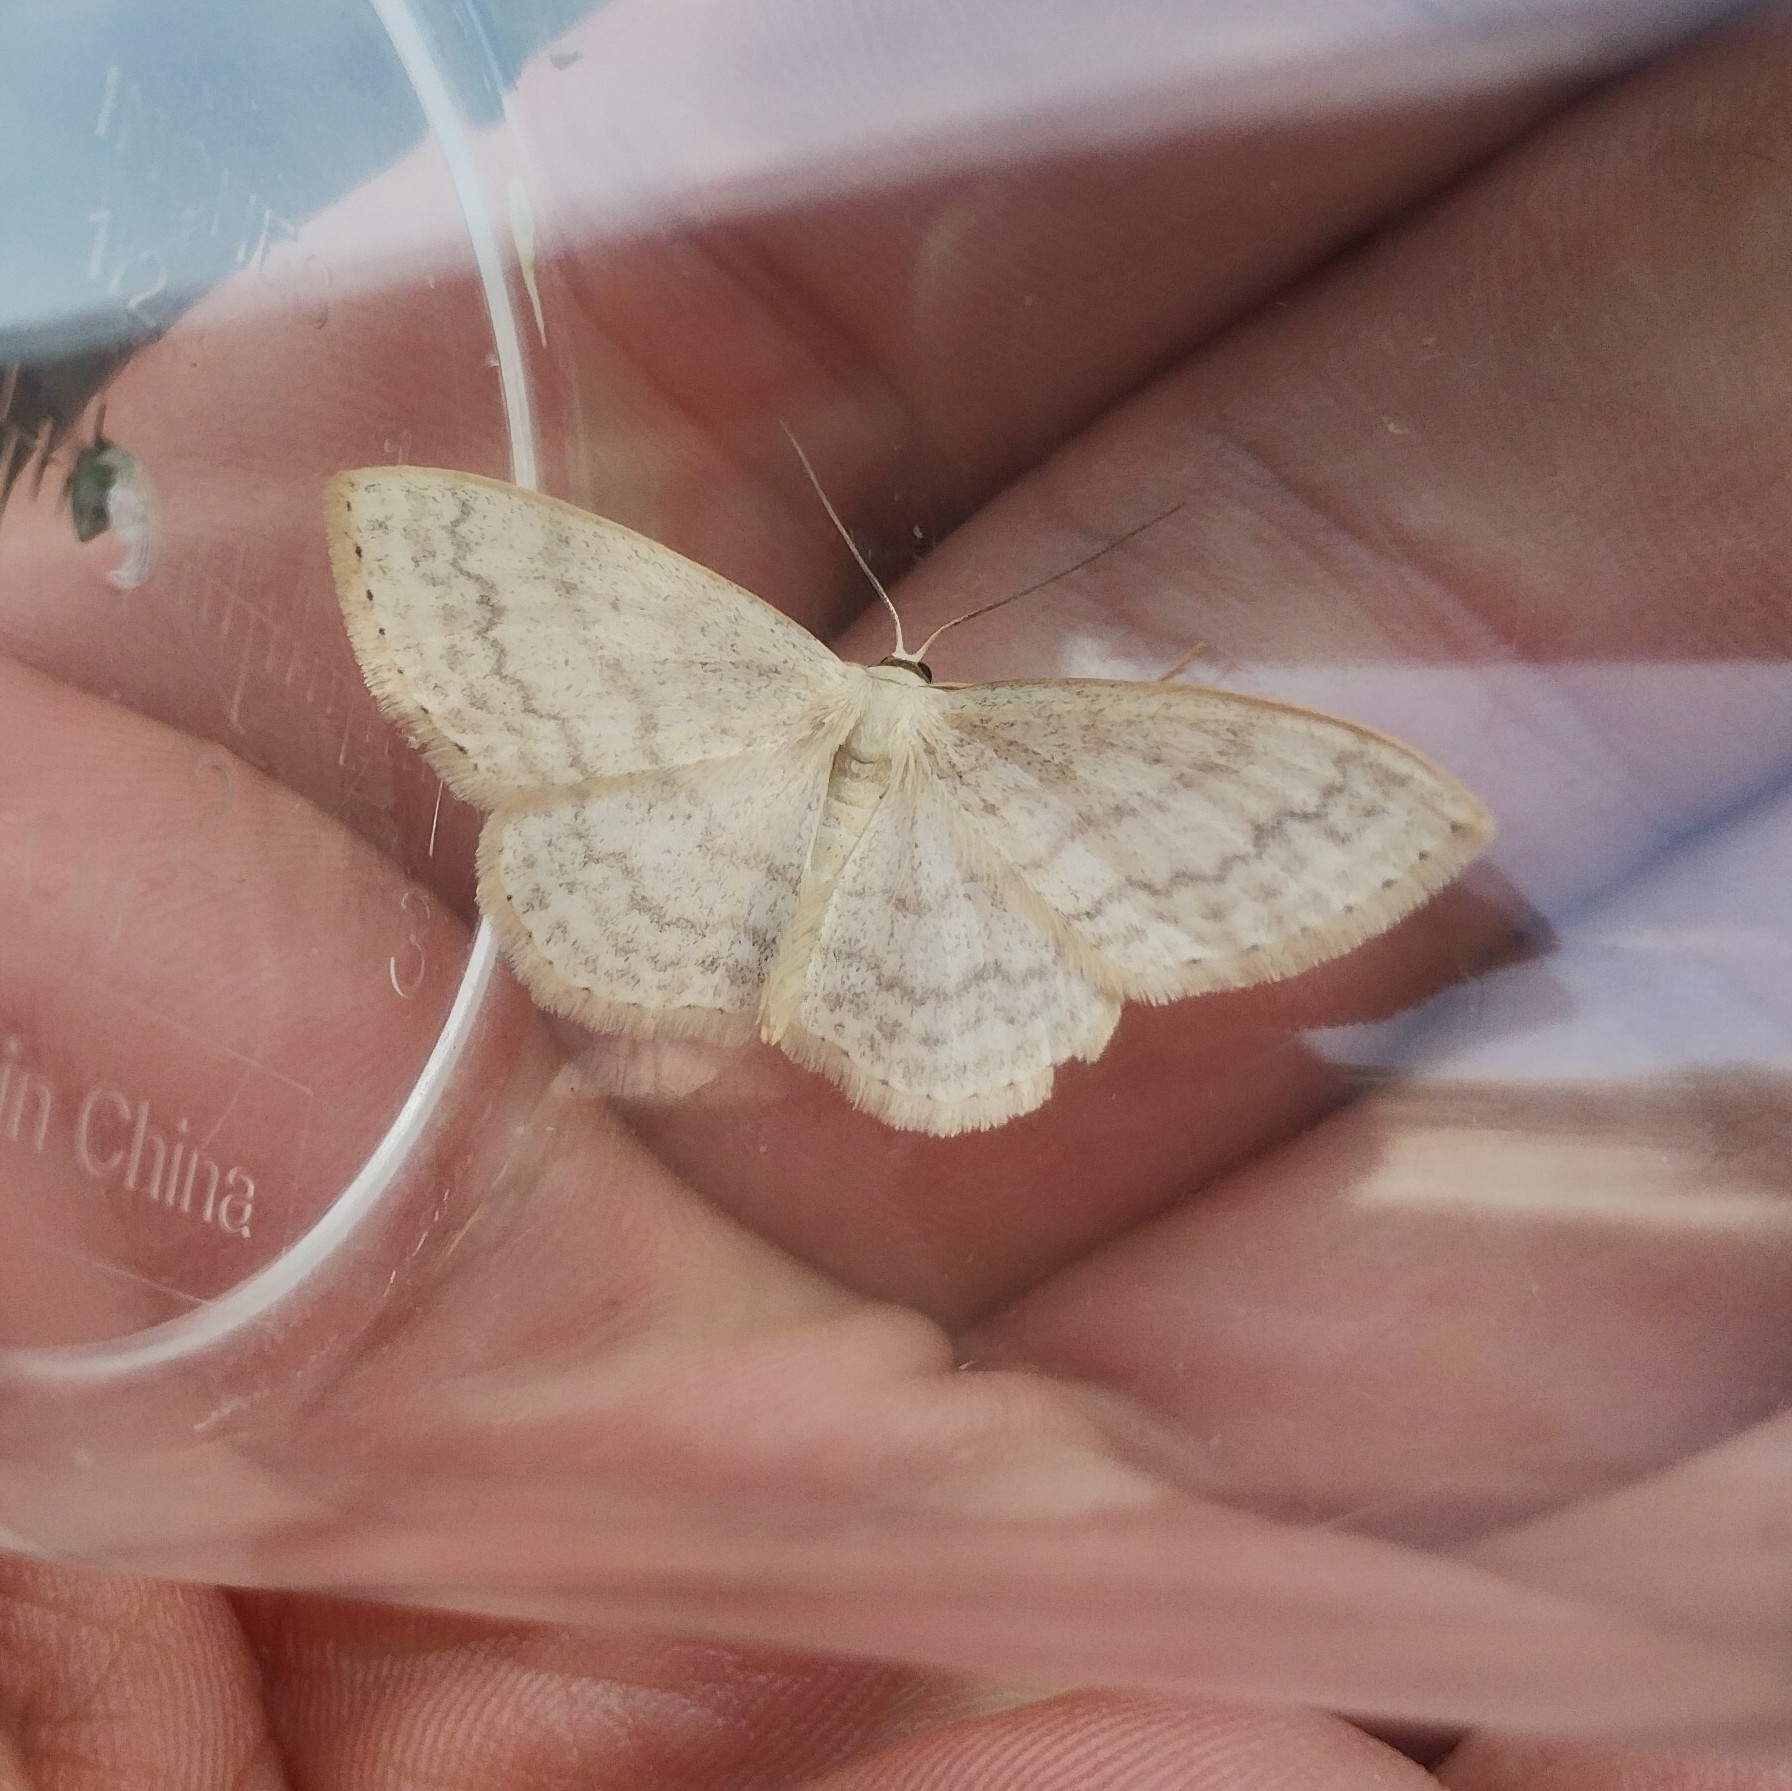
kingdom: Animalia
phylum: Arthropoda
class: Insecta
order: Lepidoptera
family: Geometridae
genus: Scopula
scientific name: Scopula floslactata
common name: Cream wave
